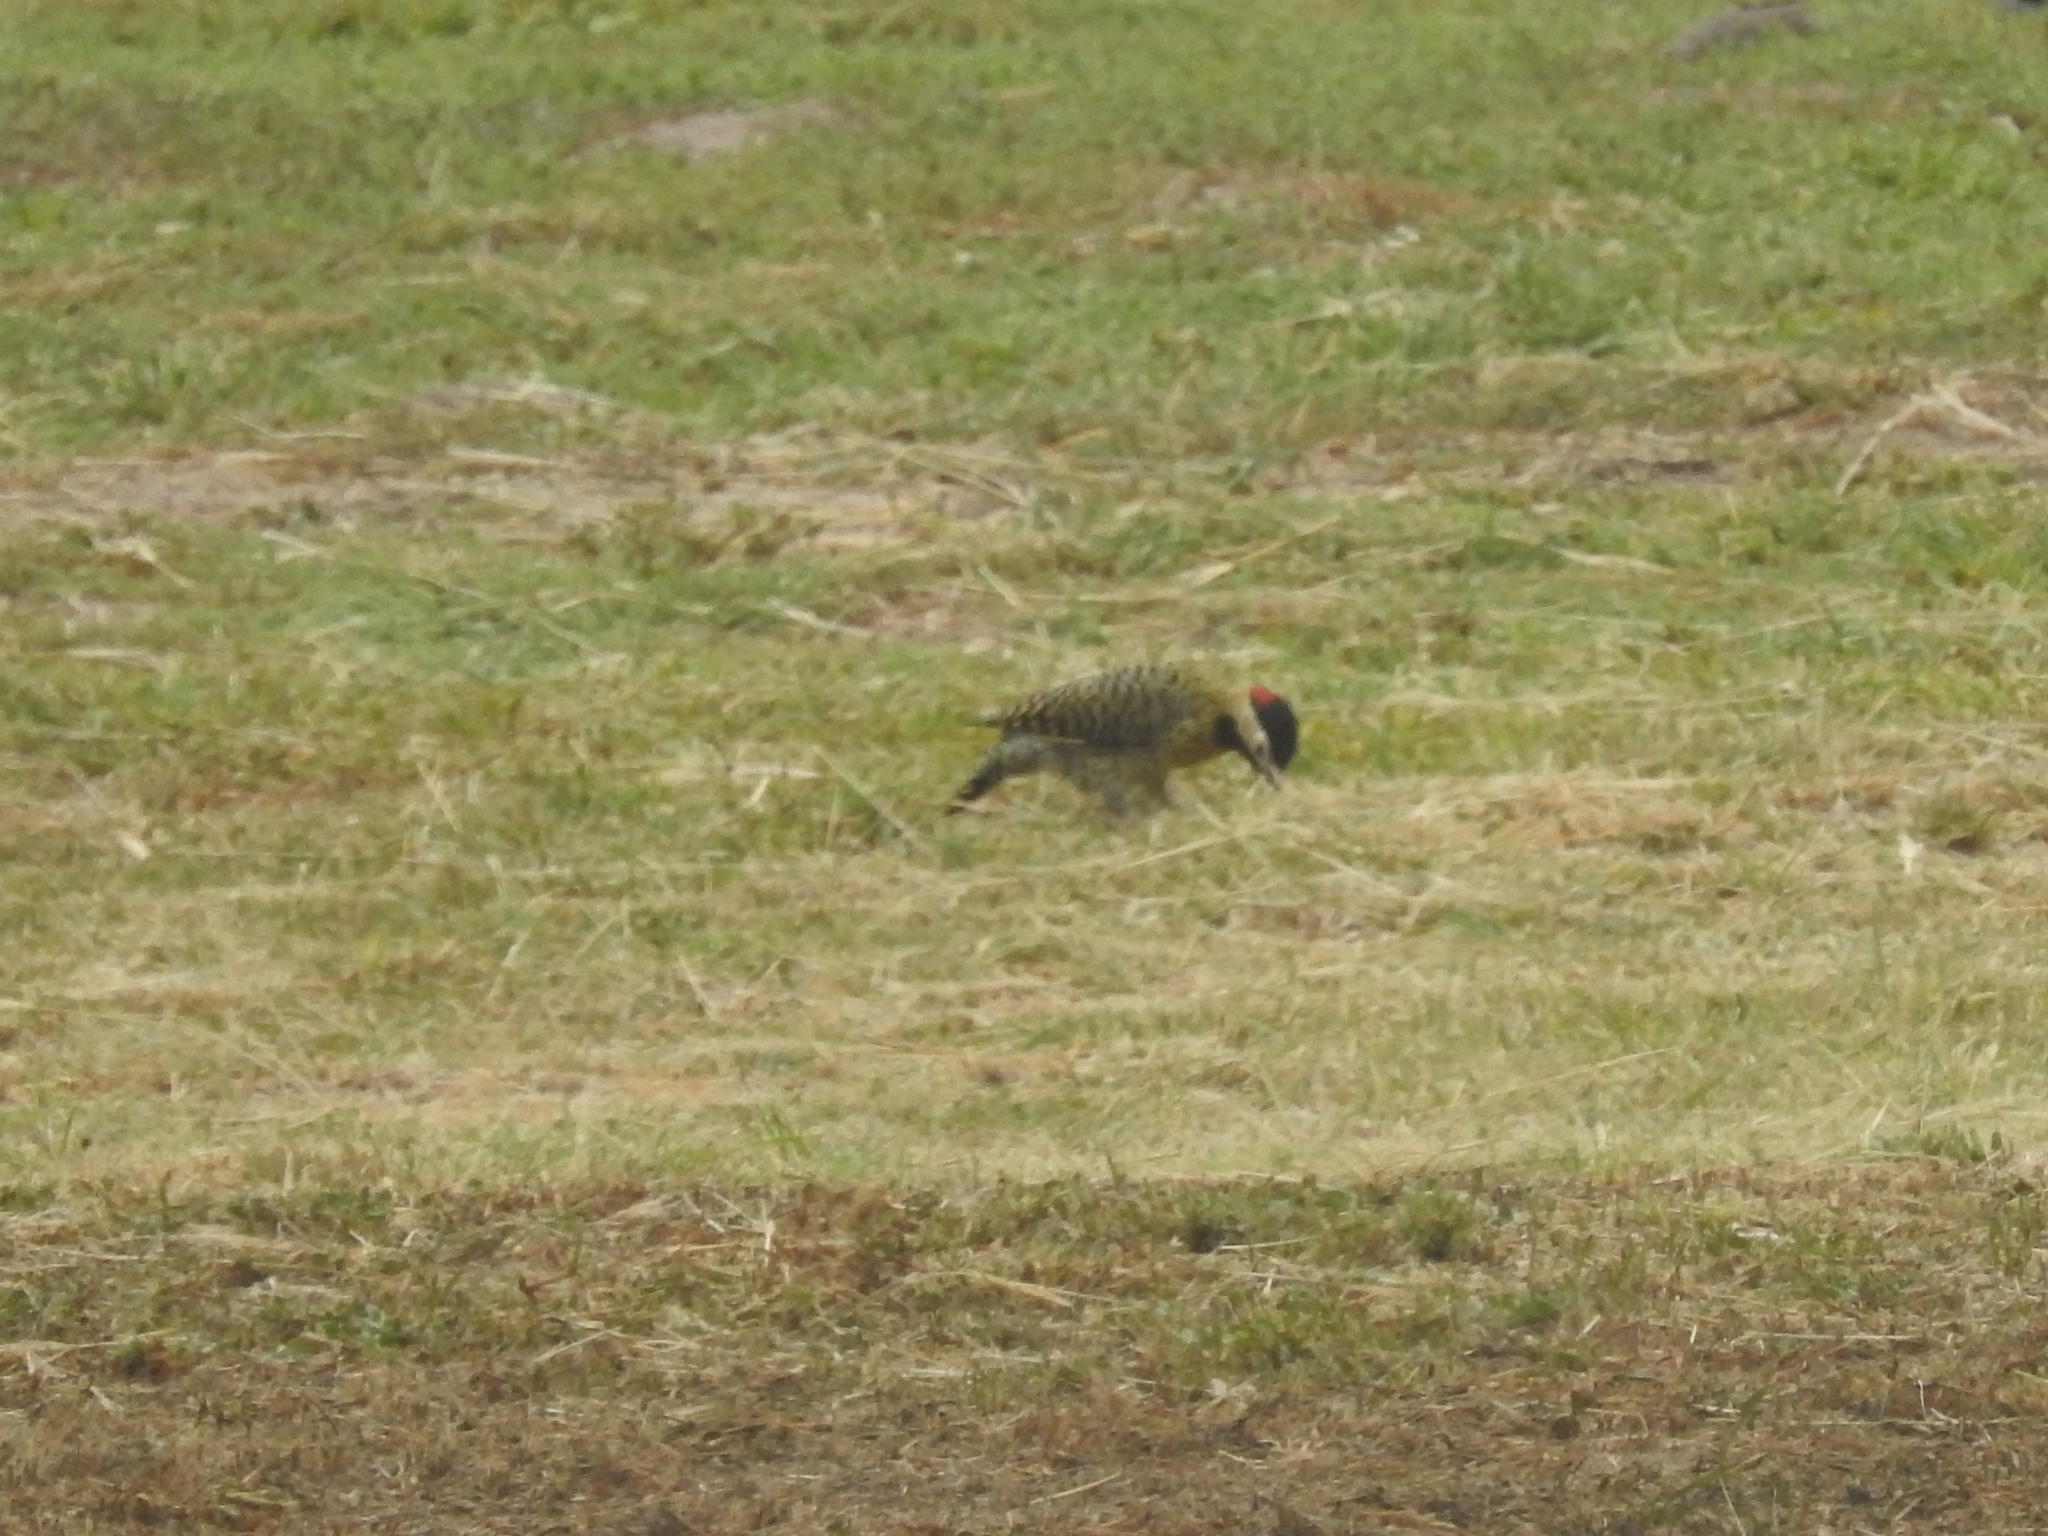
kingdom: Animalia
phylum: Chordata
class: Aves
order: Piciformes
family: Picidae
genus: Colaptes
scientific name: Colaptes melanochloros
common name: Green-barred woodpecker
